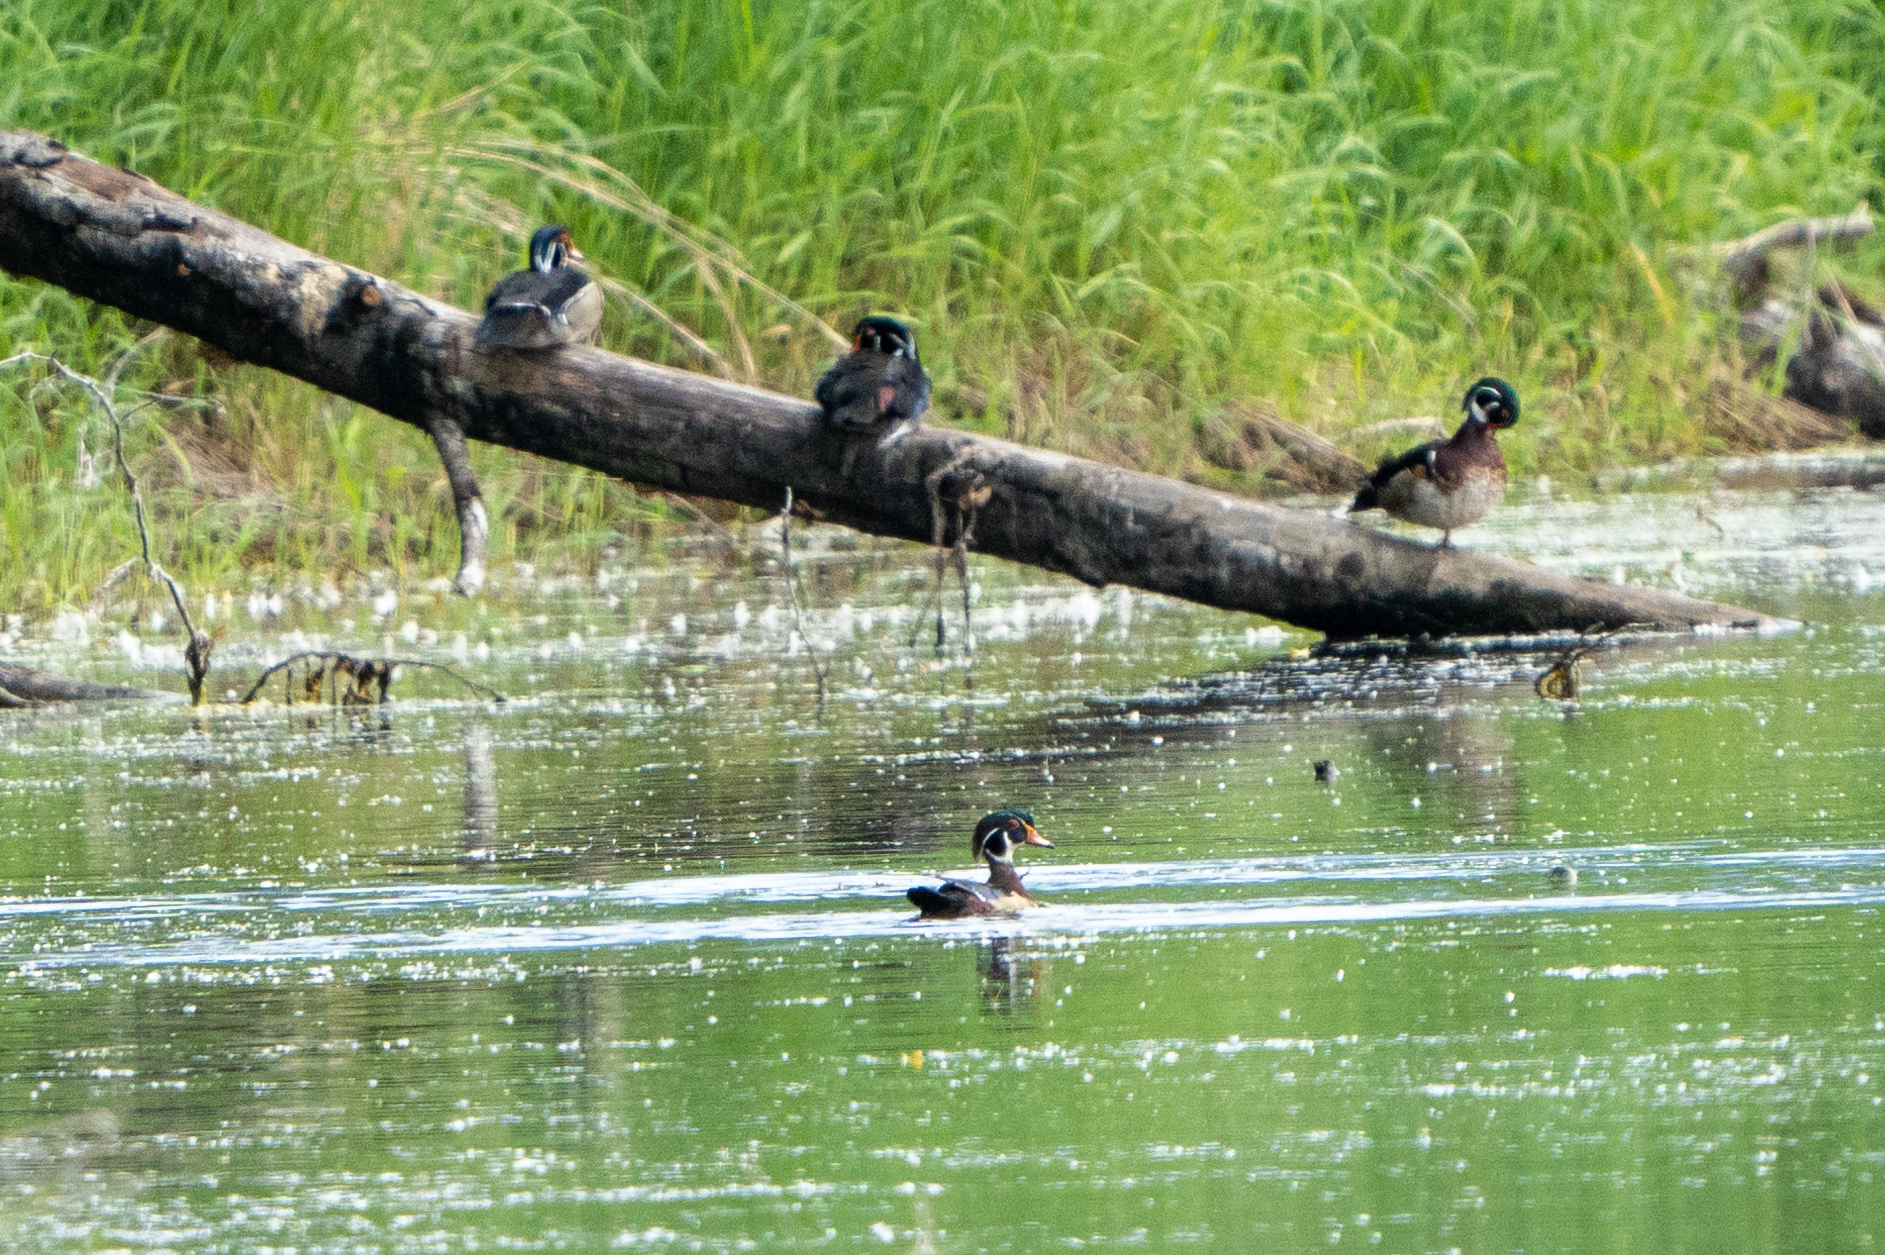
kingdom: Animalia
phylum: Chordata
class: Aves
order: Anseriformes
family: Anatidae
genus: Aix
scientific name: Aix sponsa
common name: Wood duck
